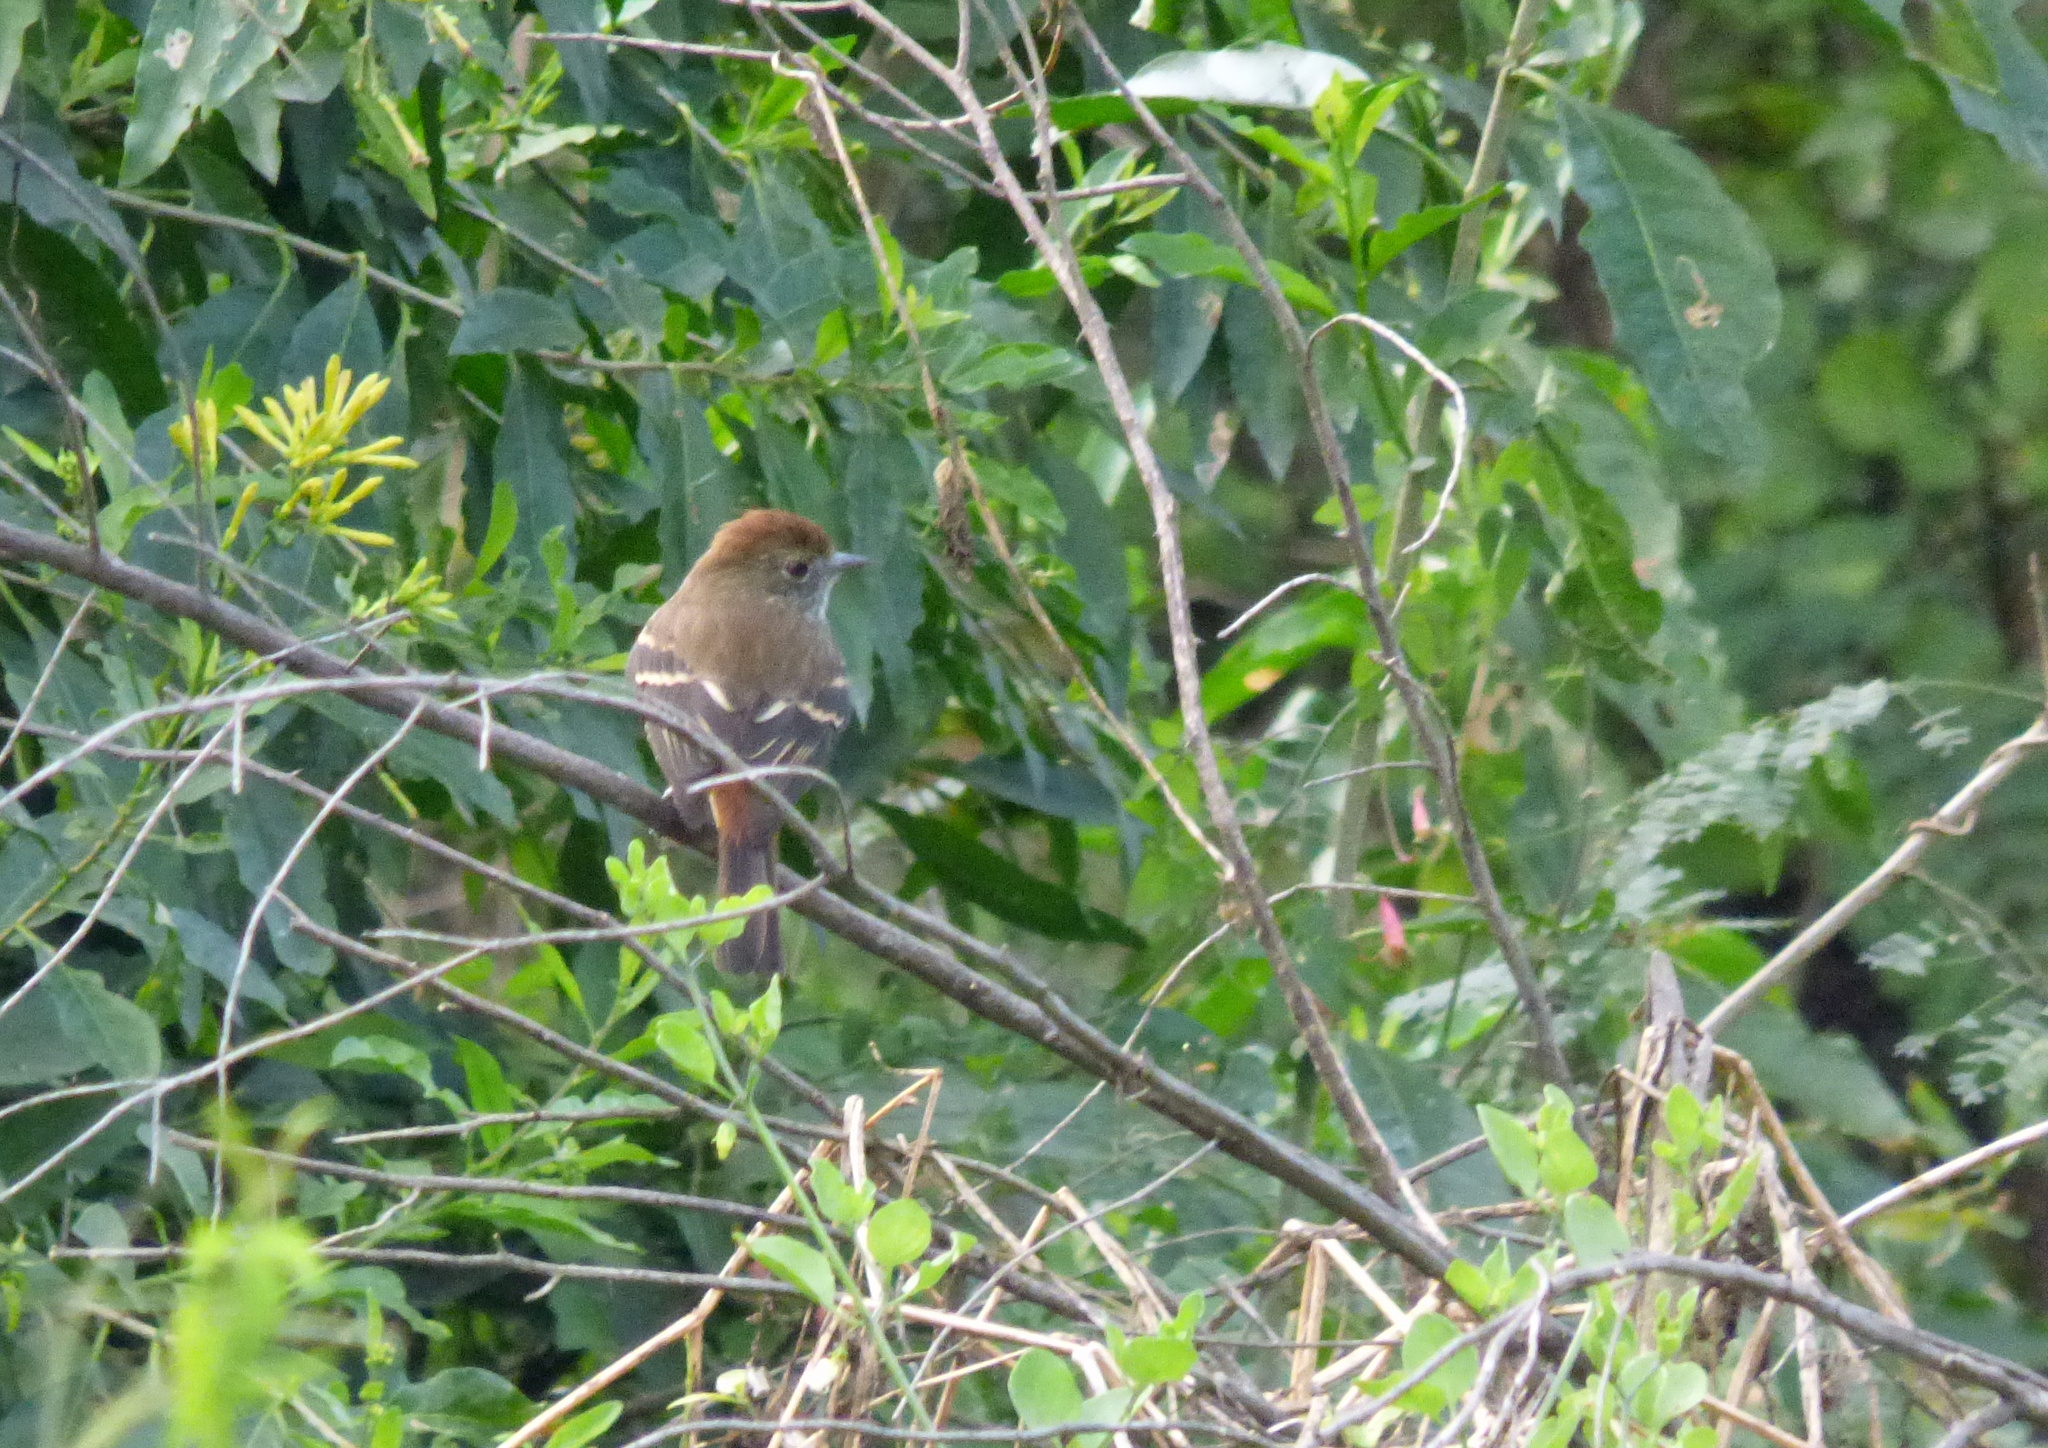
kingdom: Animalia
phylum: Chordata
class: Aves
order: Passeriformes
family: Tyrannidae
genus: Knipolegus
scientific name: Knipolegus cyanirostris
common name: Blue-billed black tyrant
